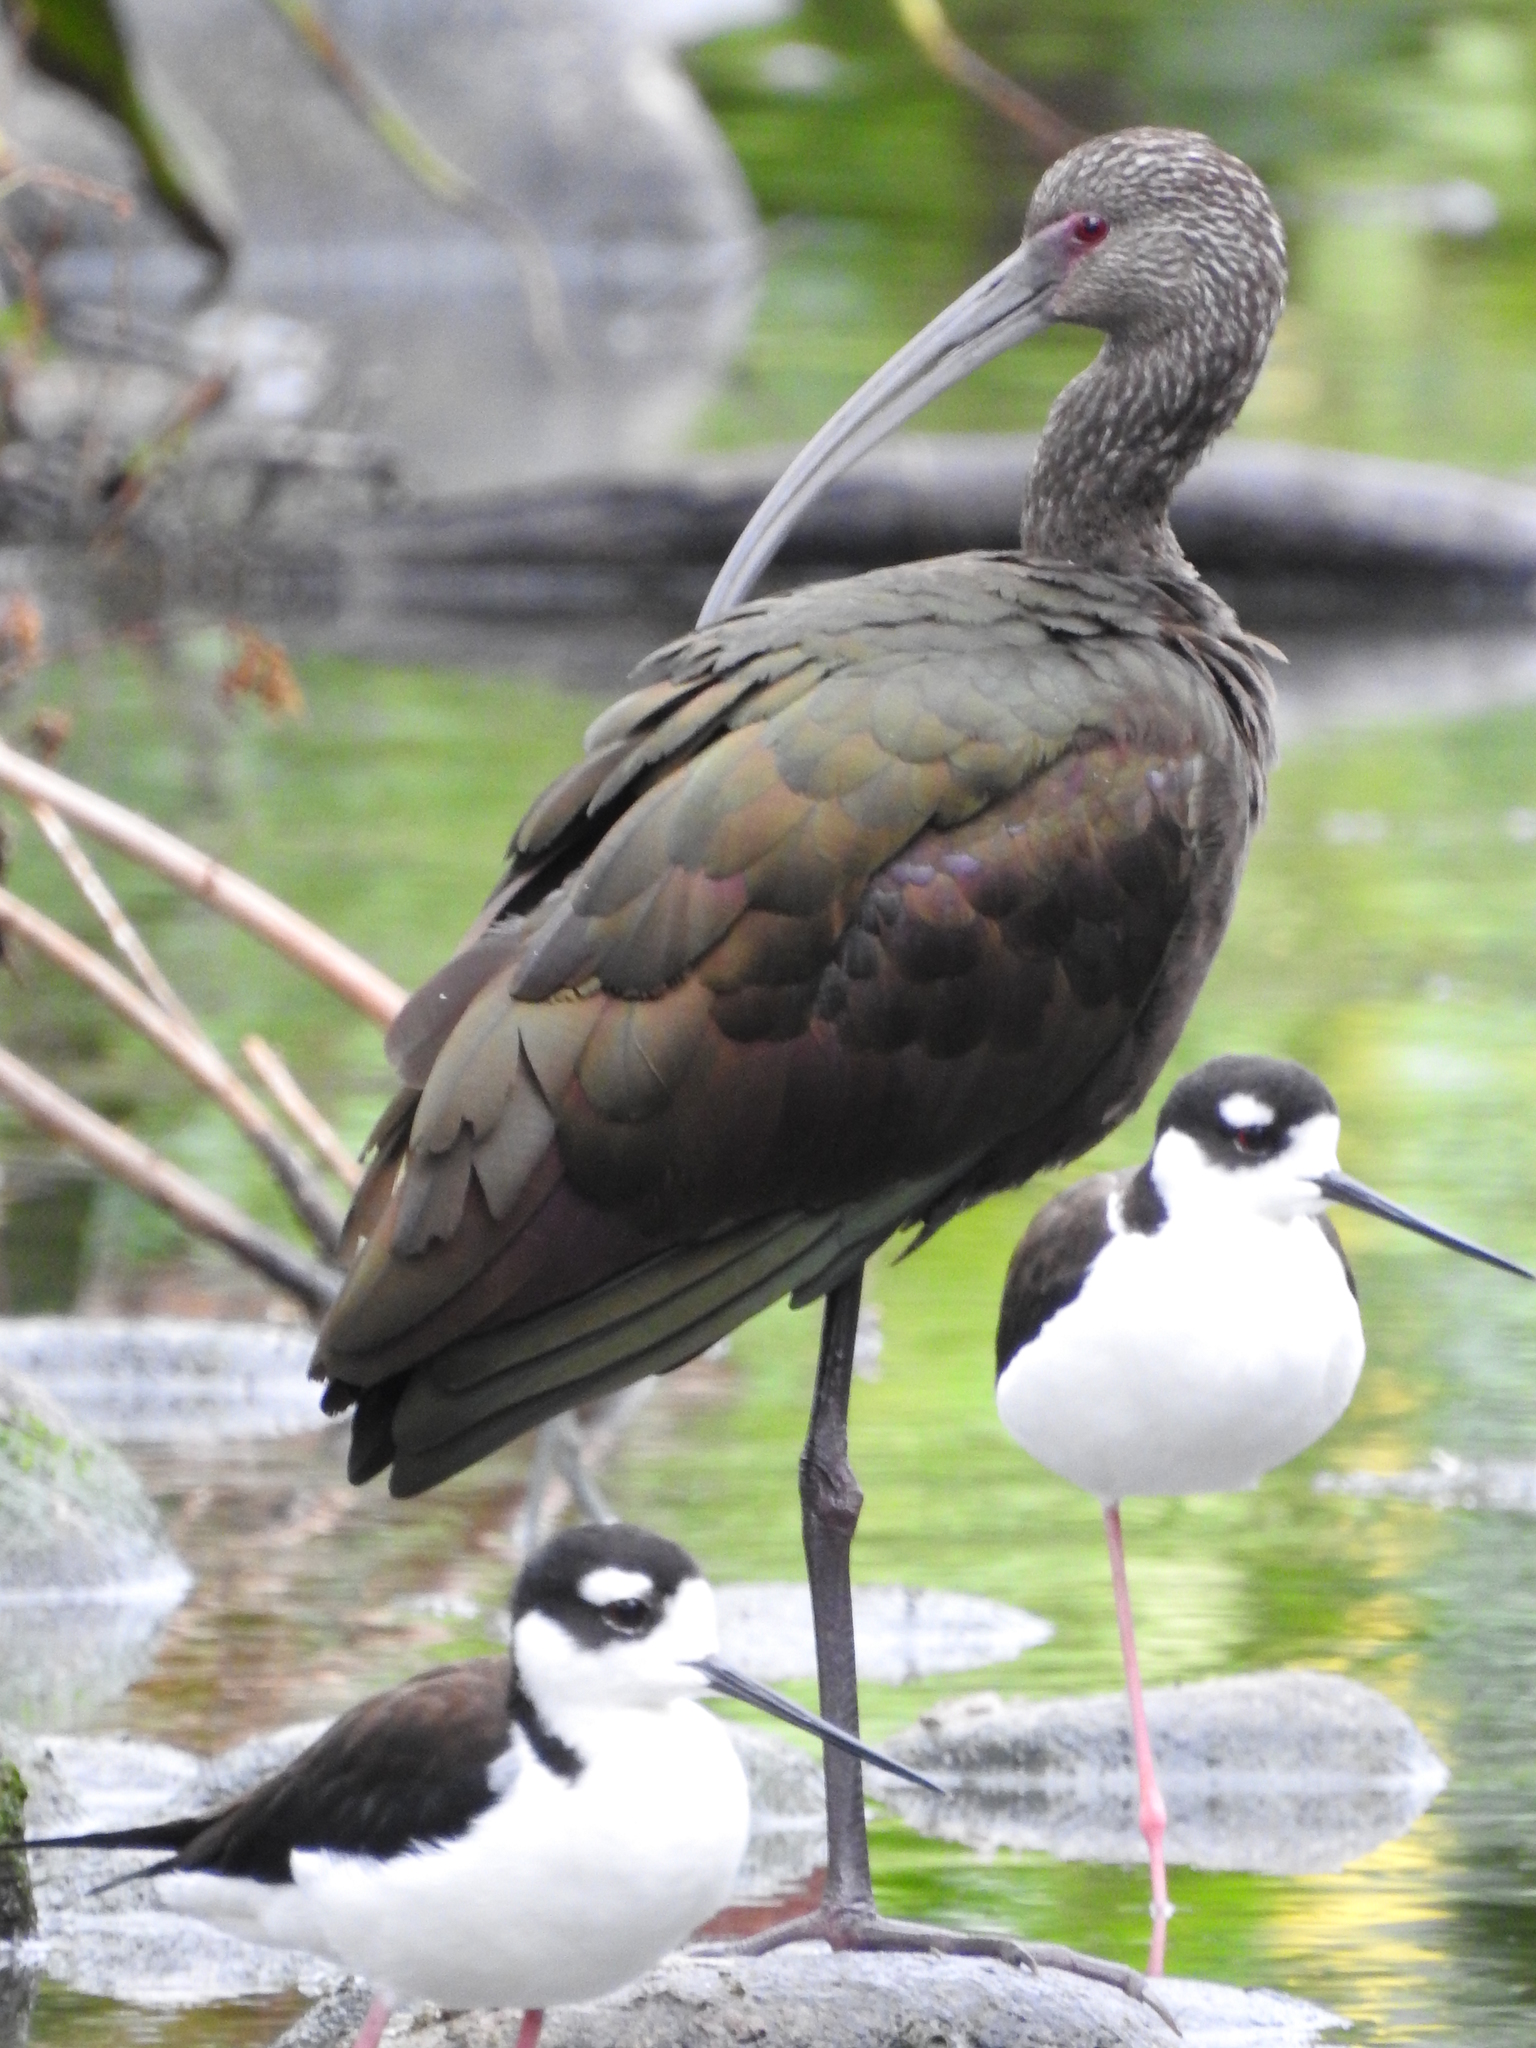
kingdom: Animalia
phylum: Chordata
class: Aves
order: Pelecaniformes
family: Threskiornithidae
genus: Plegadis
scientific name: Plegadis chihi
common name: White-faced ibis
